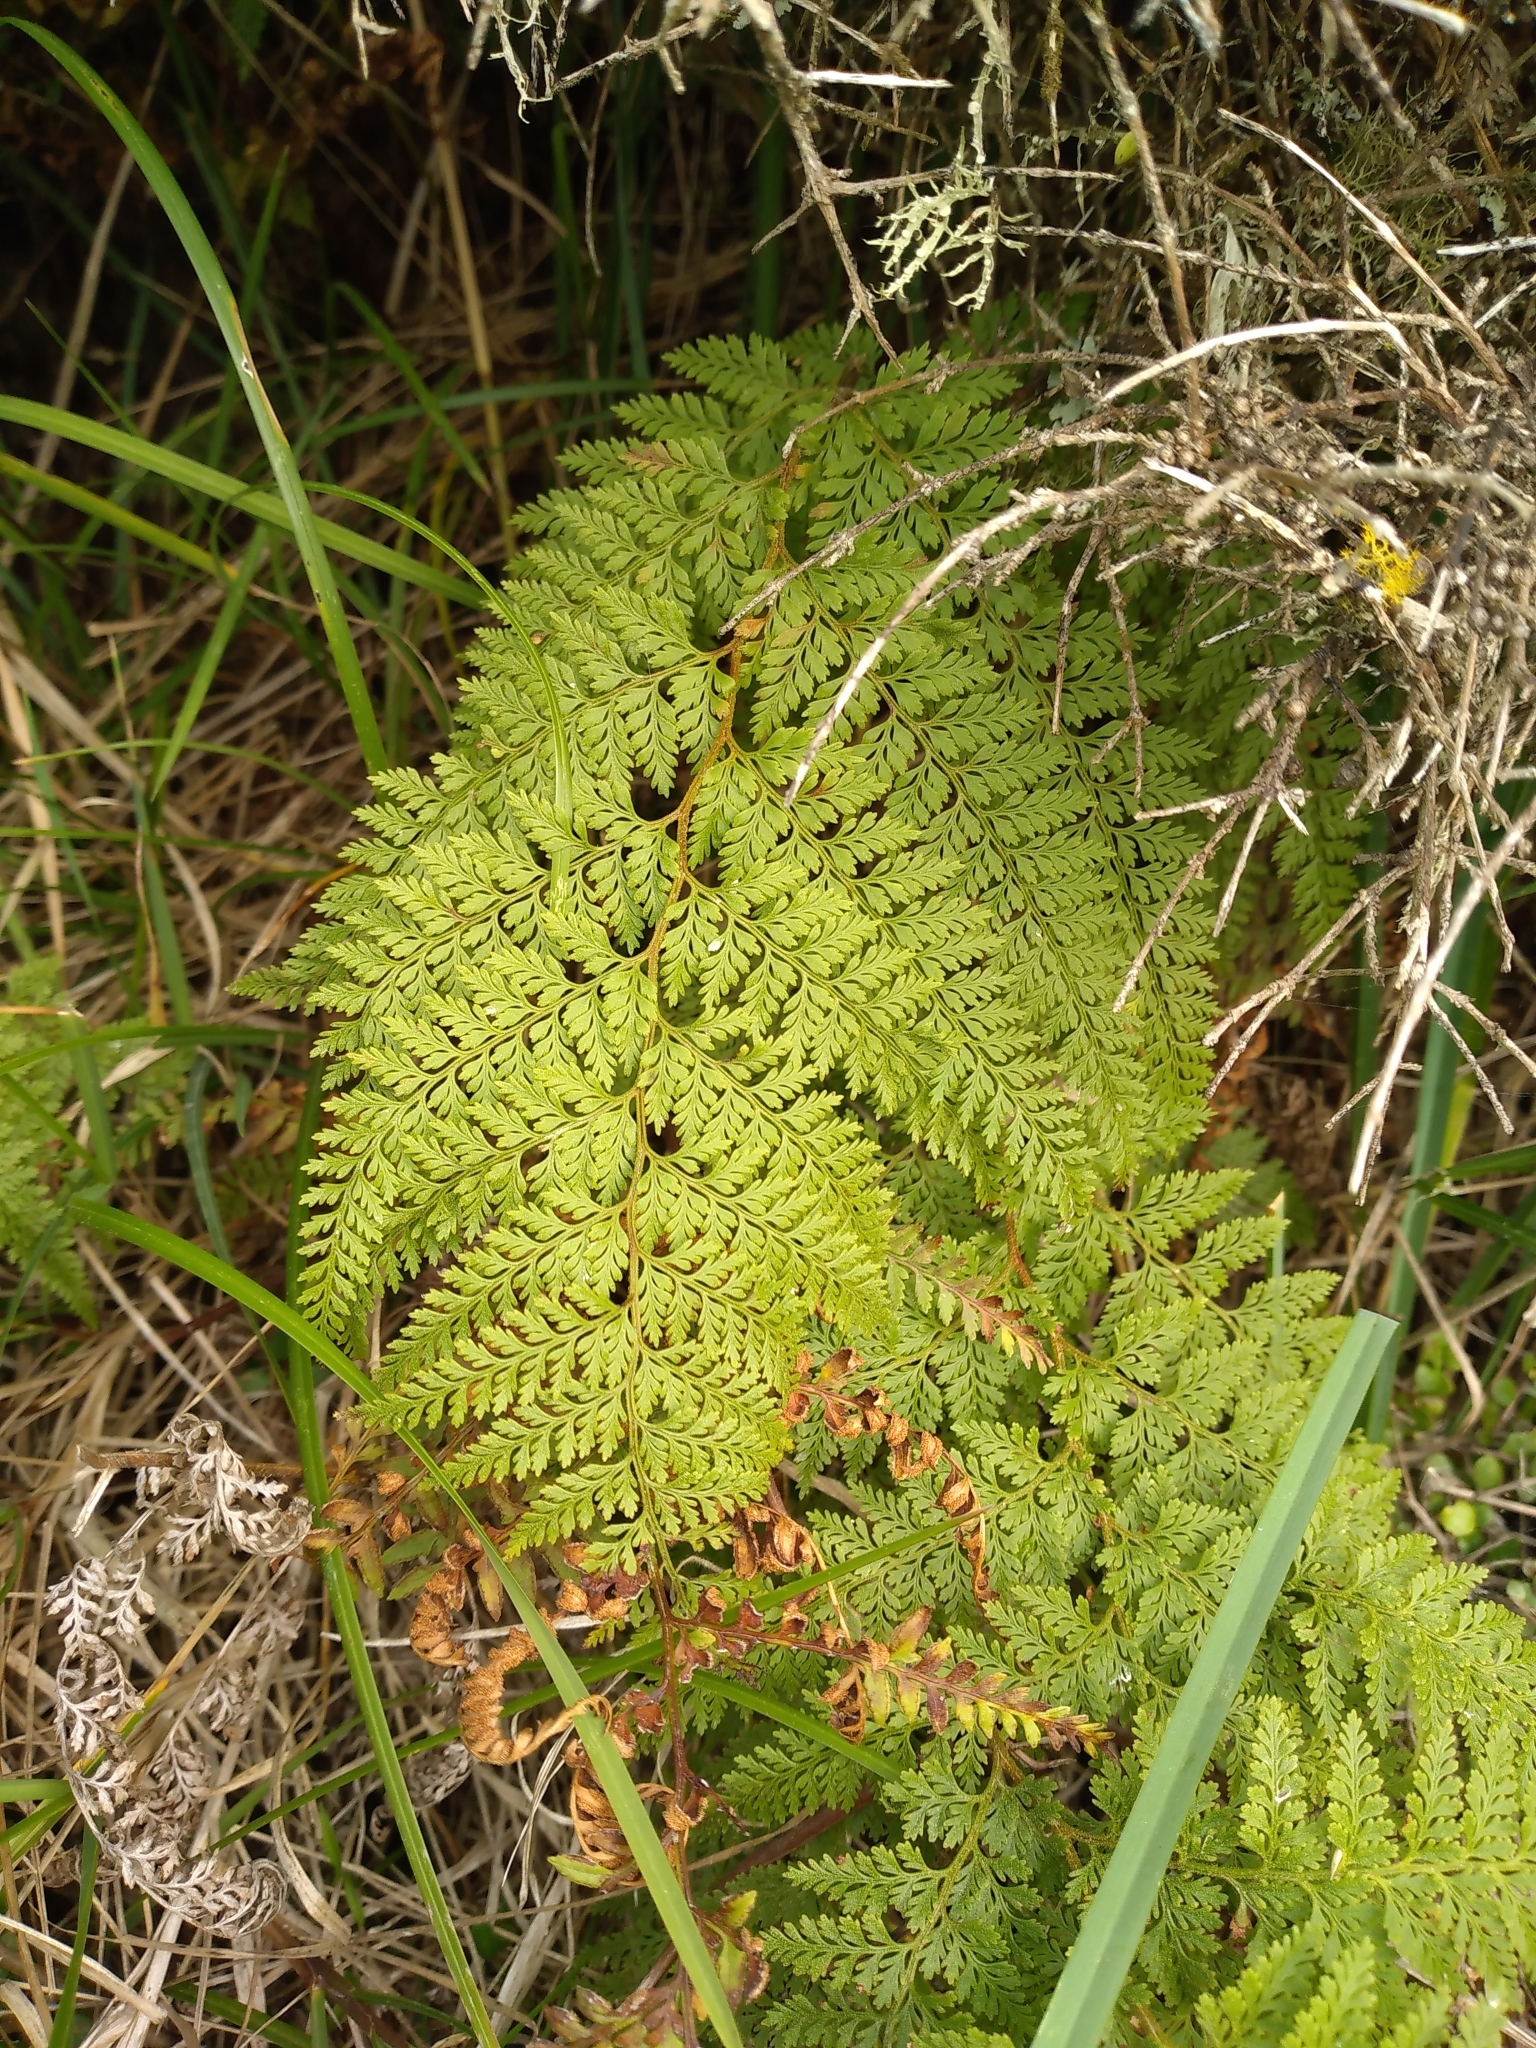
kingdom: Plantae
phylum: Tracheophyta
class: Polypodiopsida
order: Polypodiales
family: Dennstaedtiaceae
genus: Paesia
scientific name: Paesia scaberula
